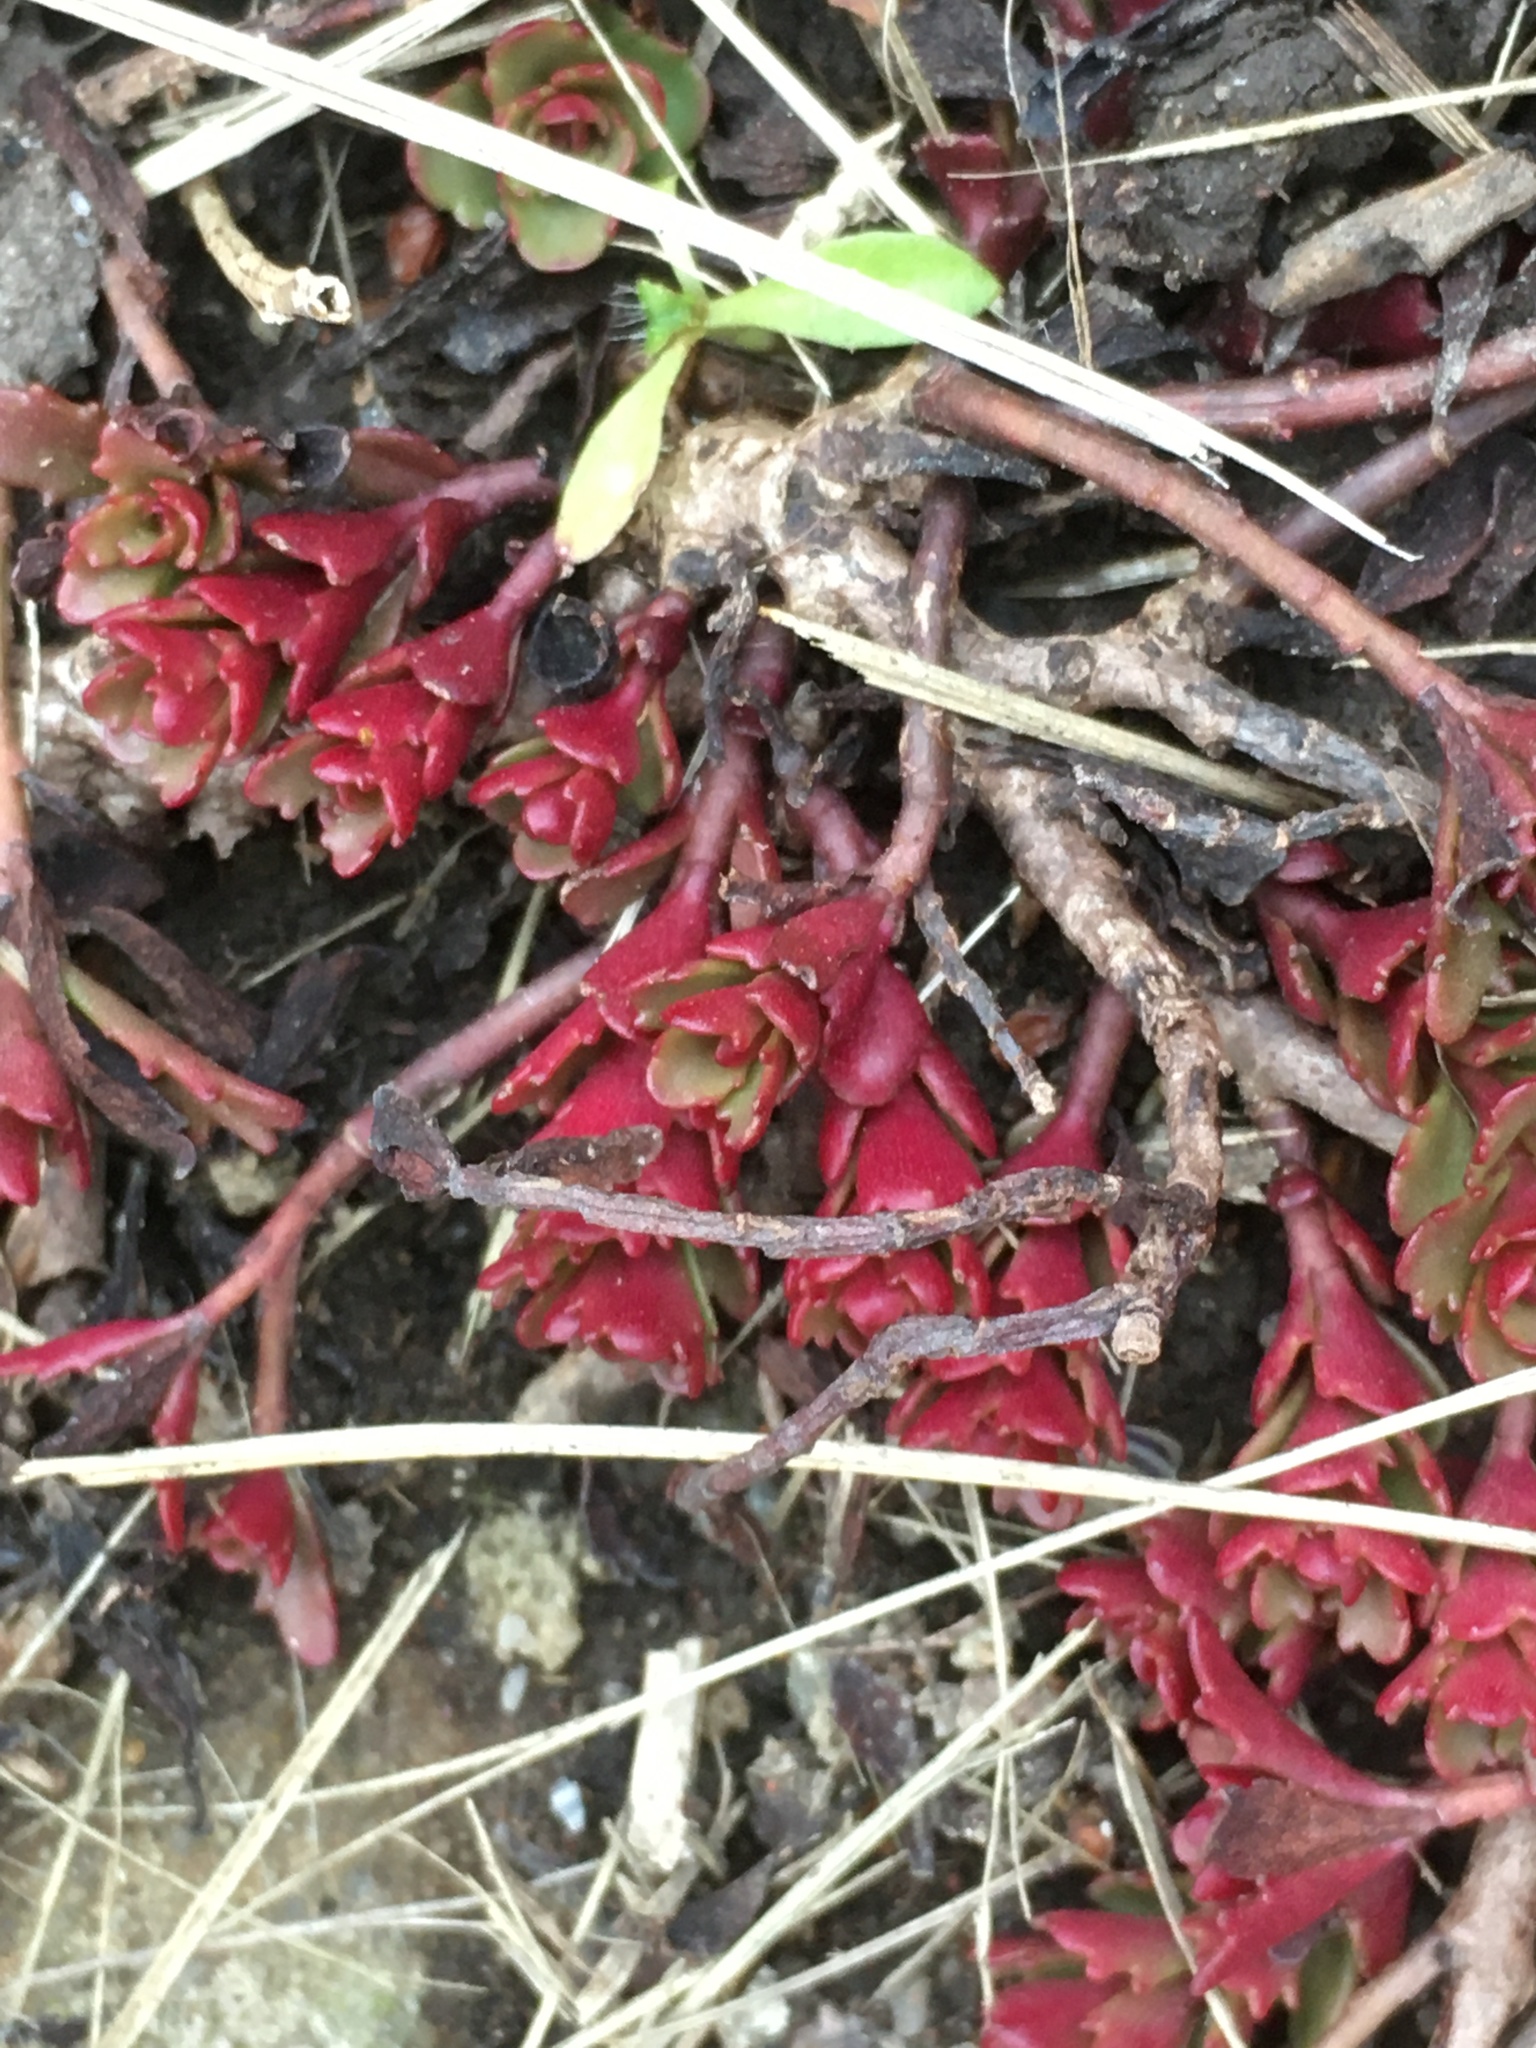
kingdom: Plantae
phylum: Tracheophyta
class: Magnoliopsida
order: Saxifragales
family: Crassulaceae
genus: Phedimus
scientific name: Phedimus spurius
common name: Caucasian stonecrop
